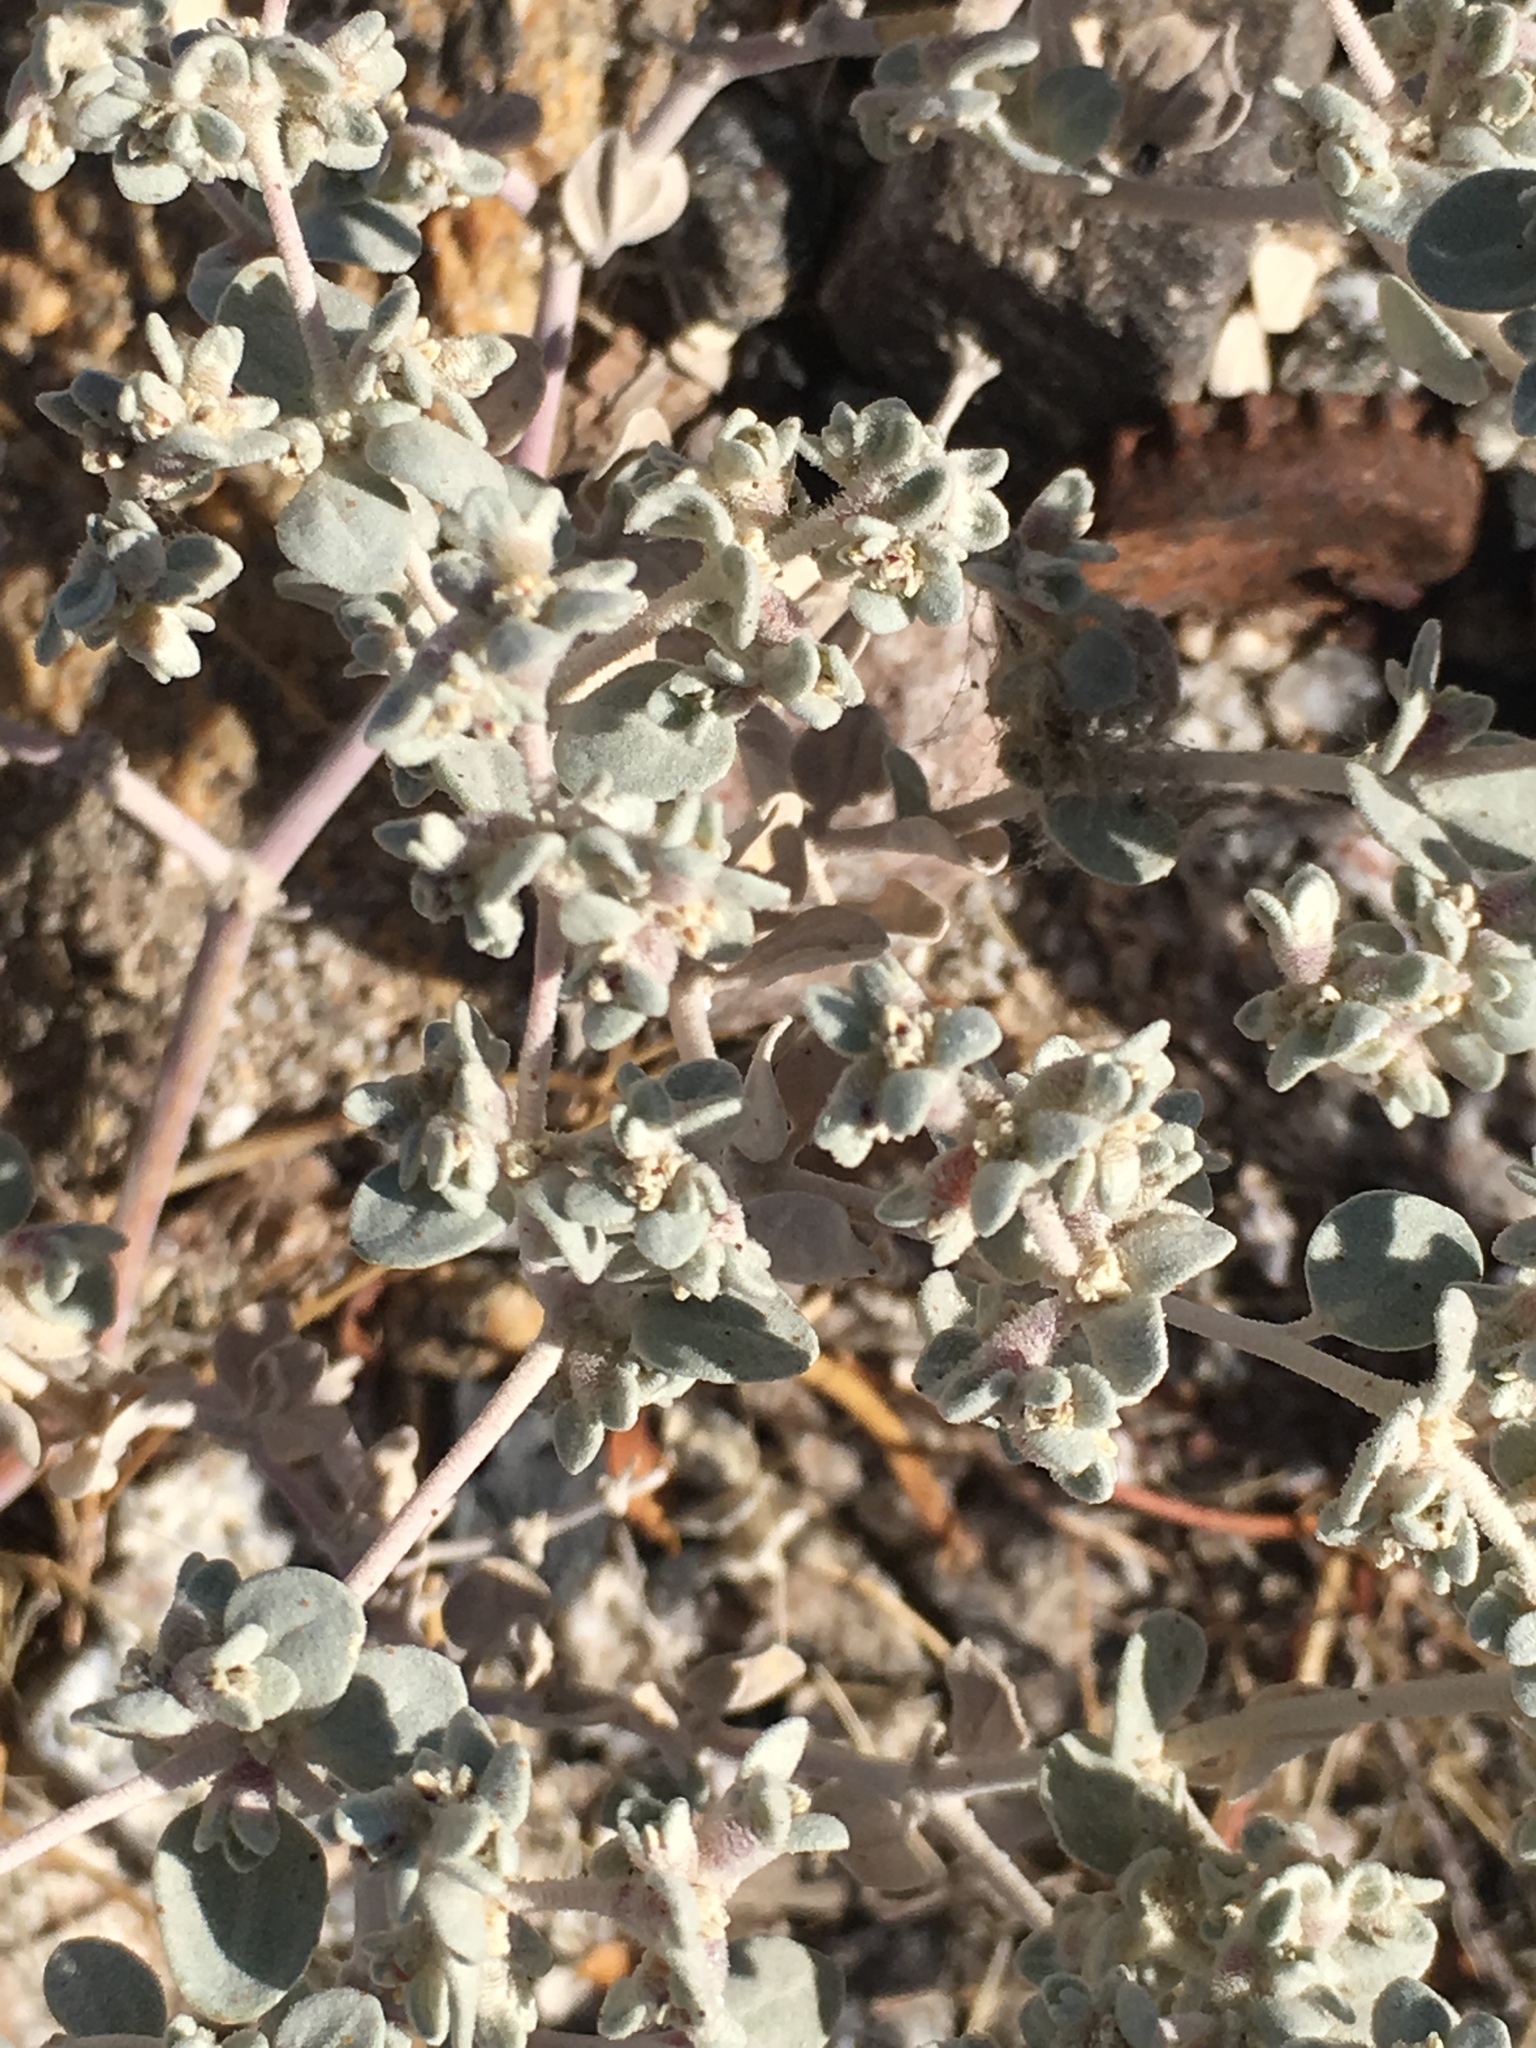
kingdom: Plantae
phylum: Tracheophyta
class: Magnoliopsida
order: Caryophyllales
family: Amaranthaceae
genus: Tidestromia
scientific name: Tidestromia suffruticosa
